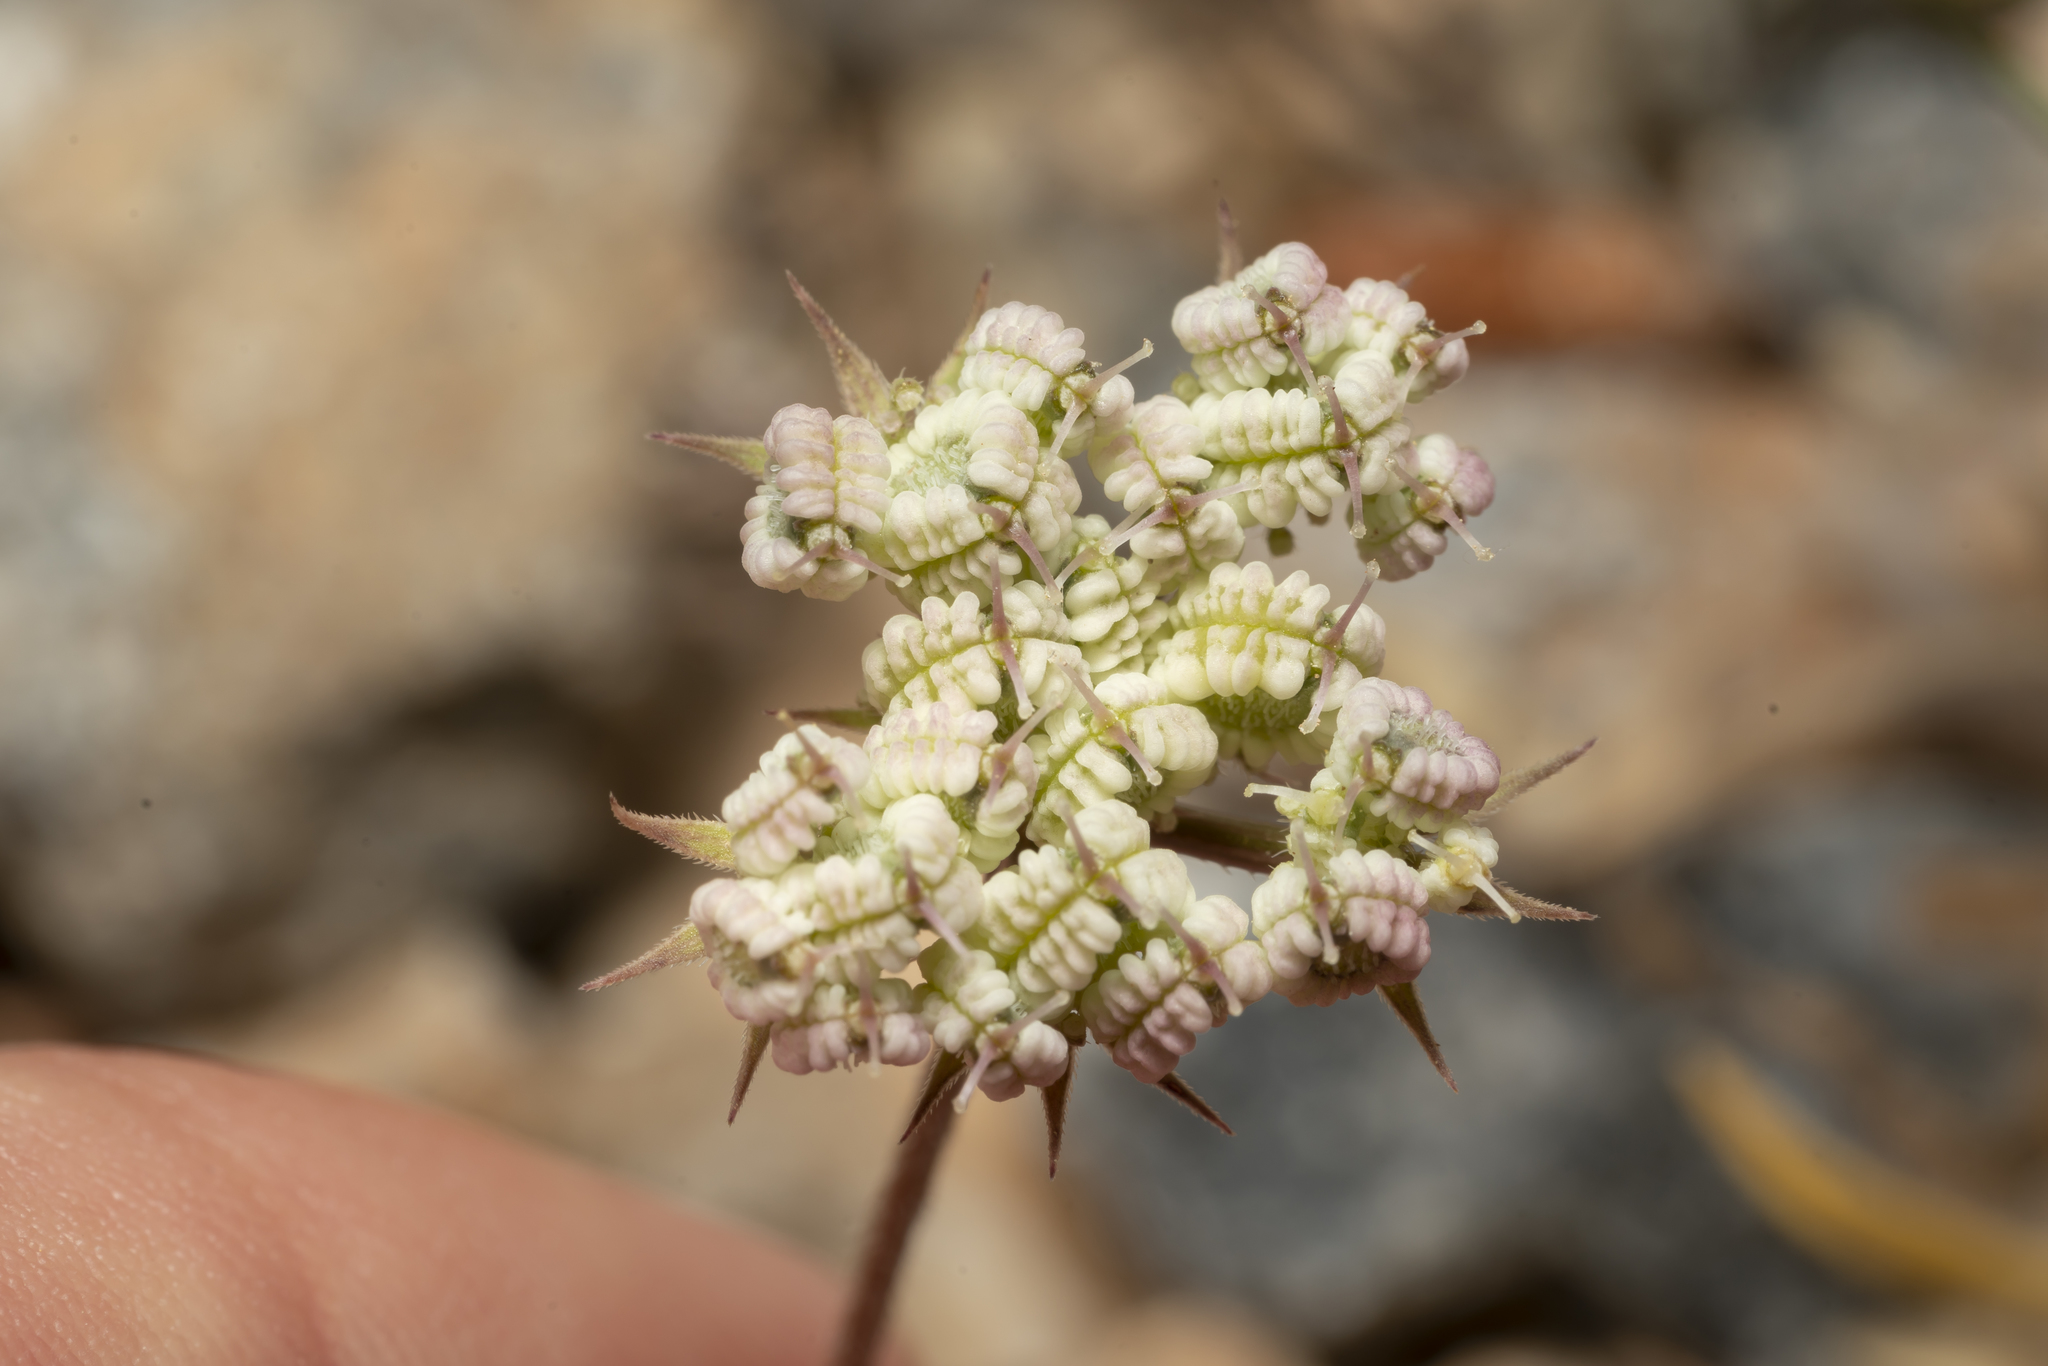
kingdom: Plantae
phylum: Tracheophyta
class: Magnoliopsida
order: Apiales
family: Apiaceae
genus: Tordylium
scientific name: Tordylium aegaeum
